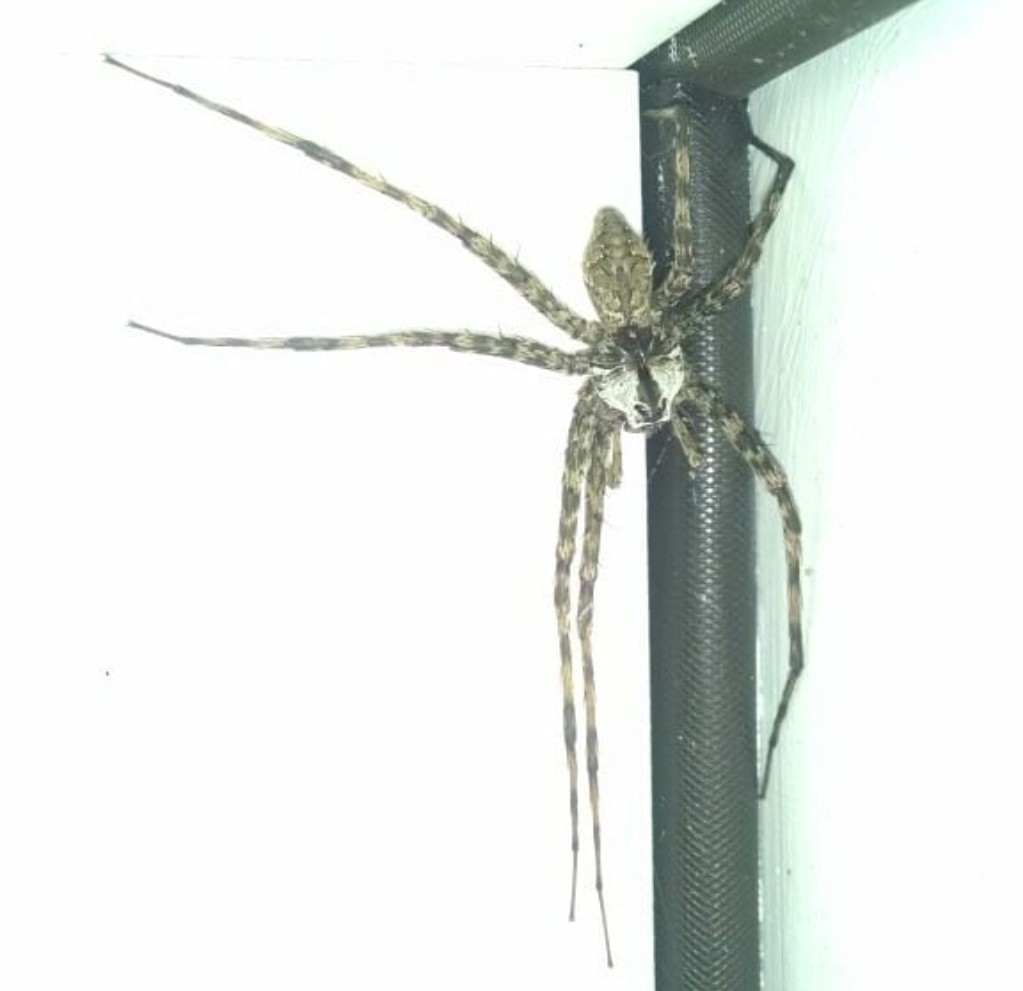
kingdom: Animalia
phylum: Arthropoda
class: Arachnida
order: Araneae
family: Pisauridae
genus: Dolomedes
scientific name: Dolomedes albineus
